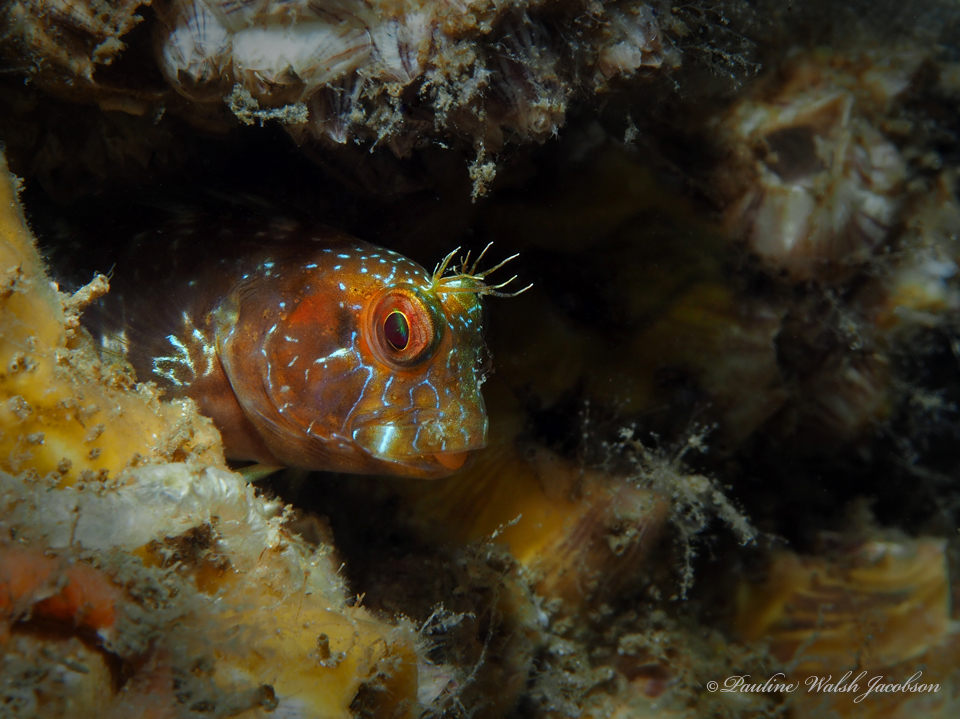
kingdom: Animalia
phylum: Chordata
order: Perciformes
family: Blenniidae
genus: Parablennius
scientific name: Parablennius marmoreus
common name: Seaweed blenny
